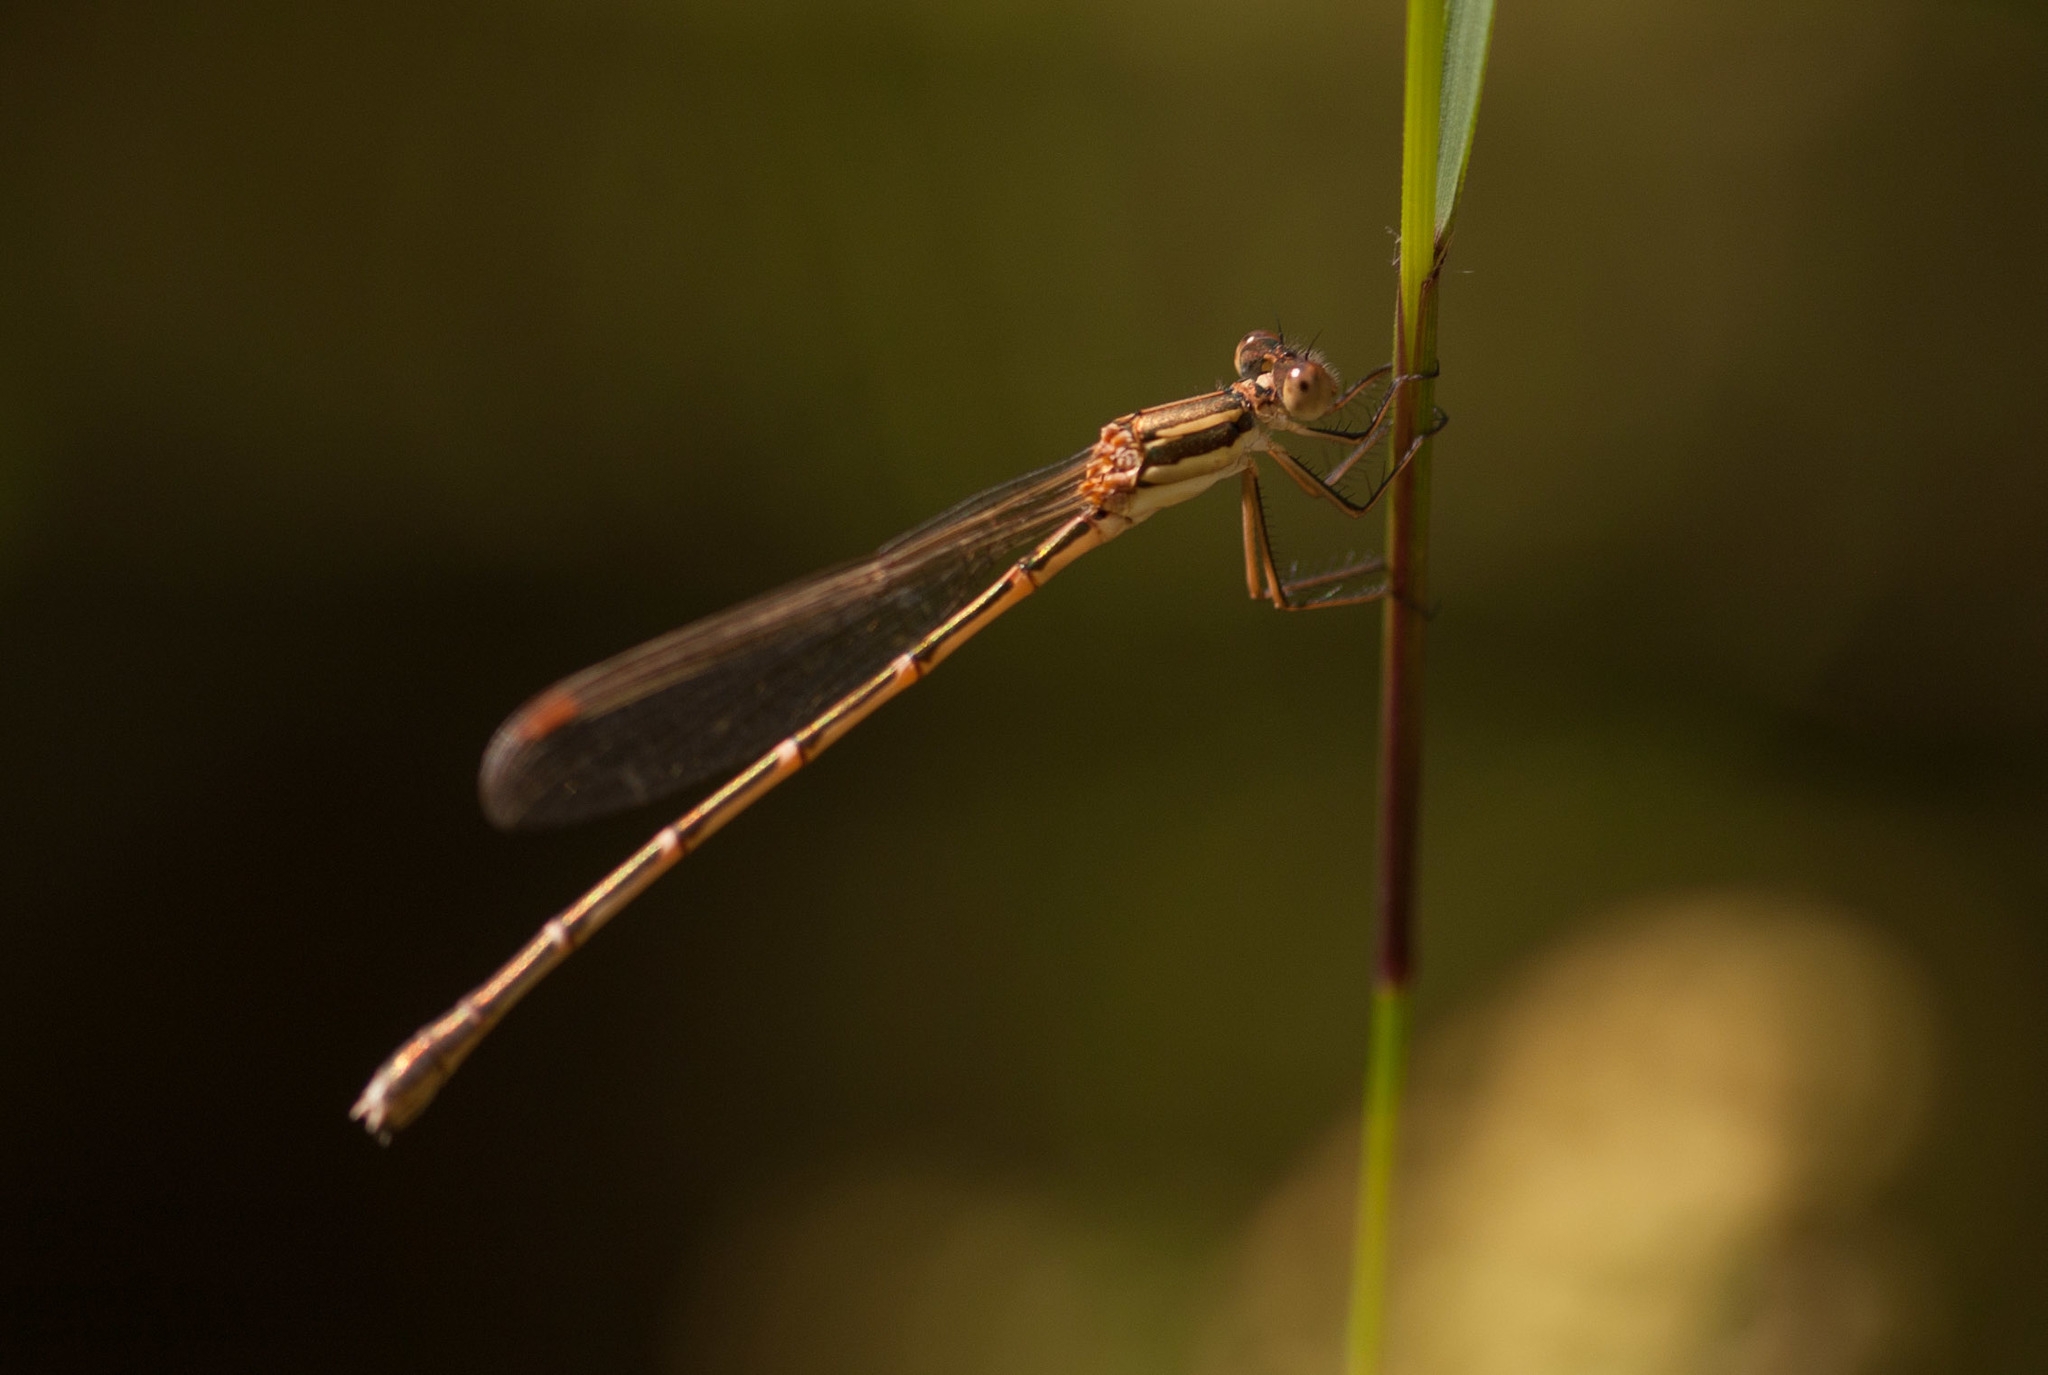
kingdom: Animalia
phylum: Arthropoda
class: Insecta
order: Odonata
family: Lestidae
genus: Austrolestes
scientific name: Austrolestes analis
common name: Slender ringtail
